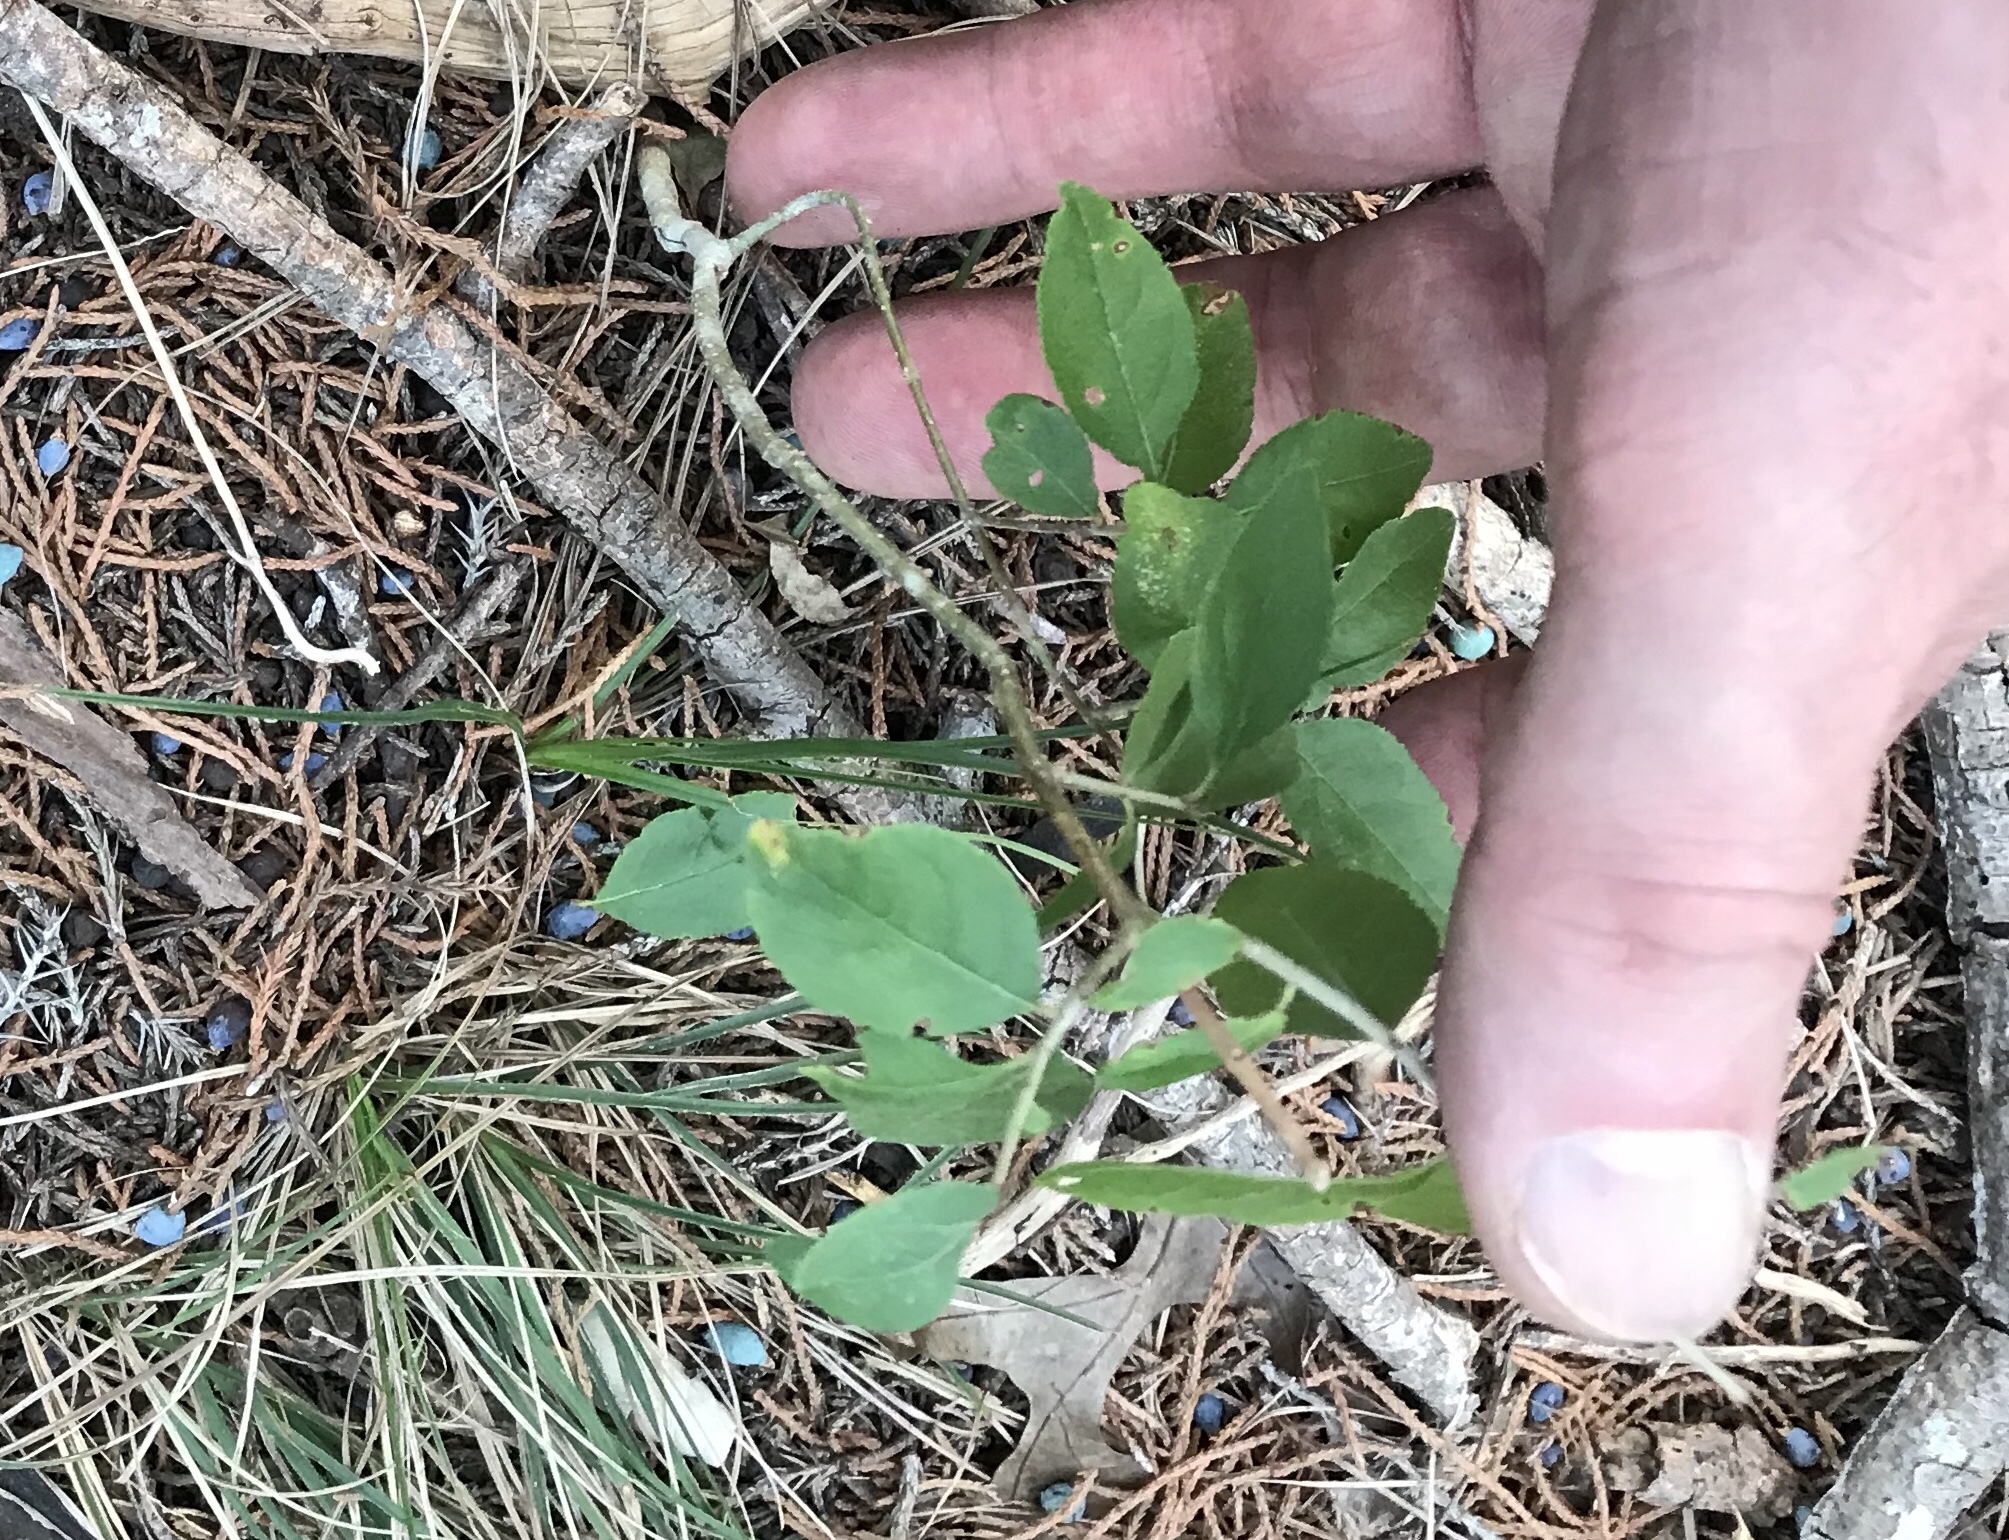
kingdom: Plantae
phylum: Tracheophyta
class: Magnoliopsida
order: Lamiales
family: Oleaceae
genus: Forestiera
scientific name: Forestiera pubescens
